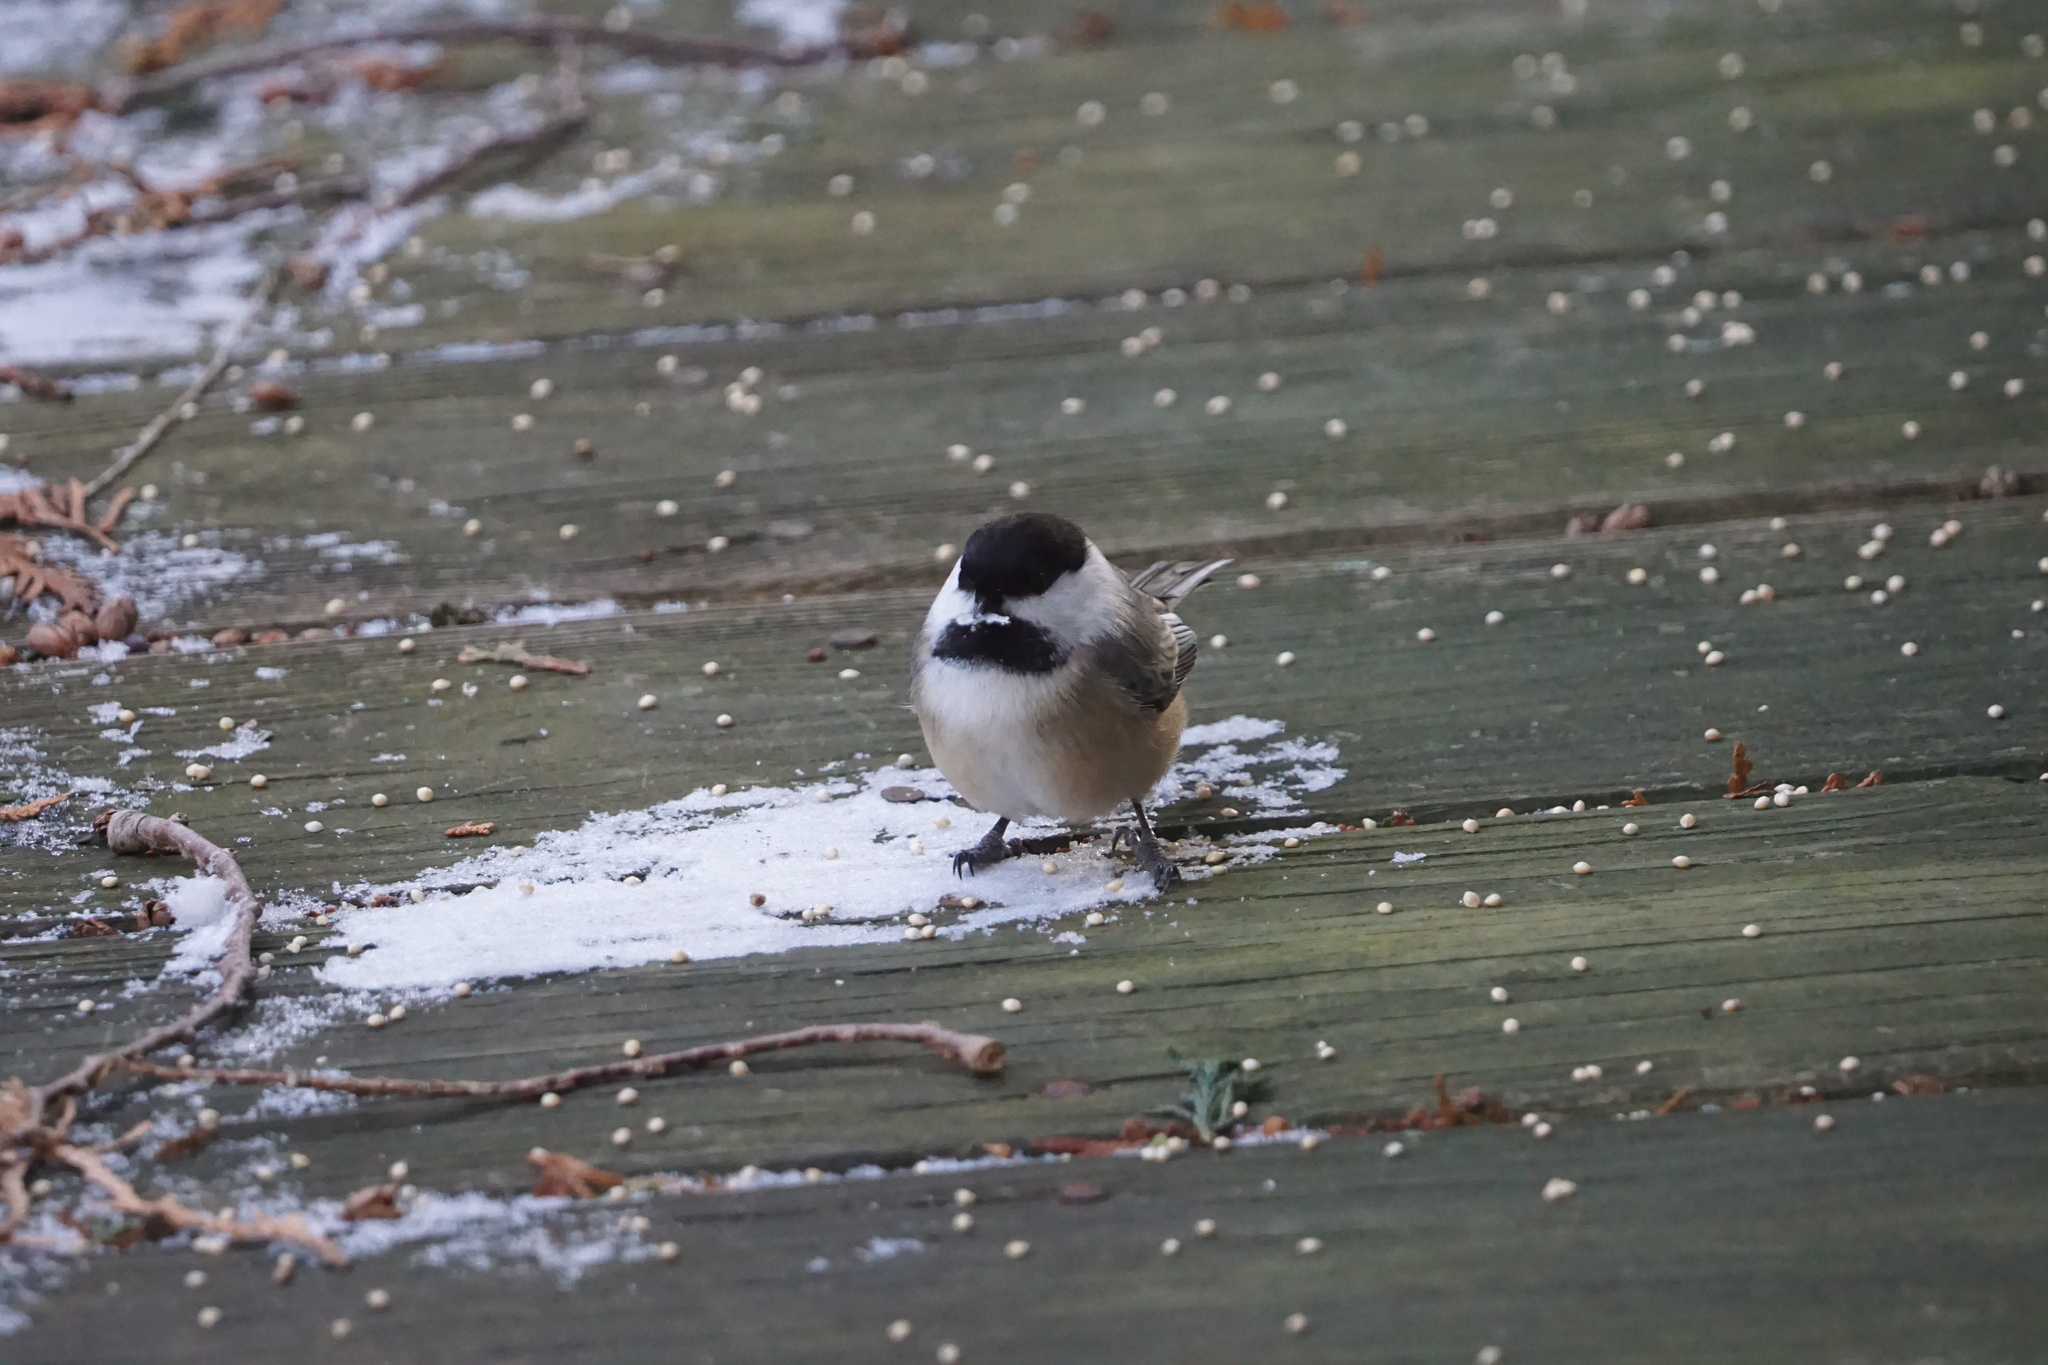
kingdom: Animalia
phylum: Chordata
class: Aves
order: Passeriformes
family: Paridae
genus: Poecile
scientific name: Poecile atricapillus
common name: Black-capped chickadee
